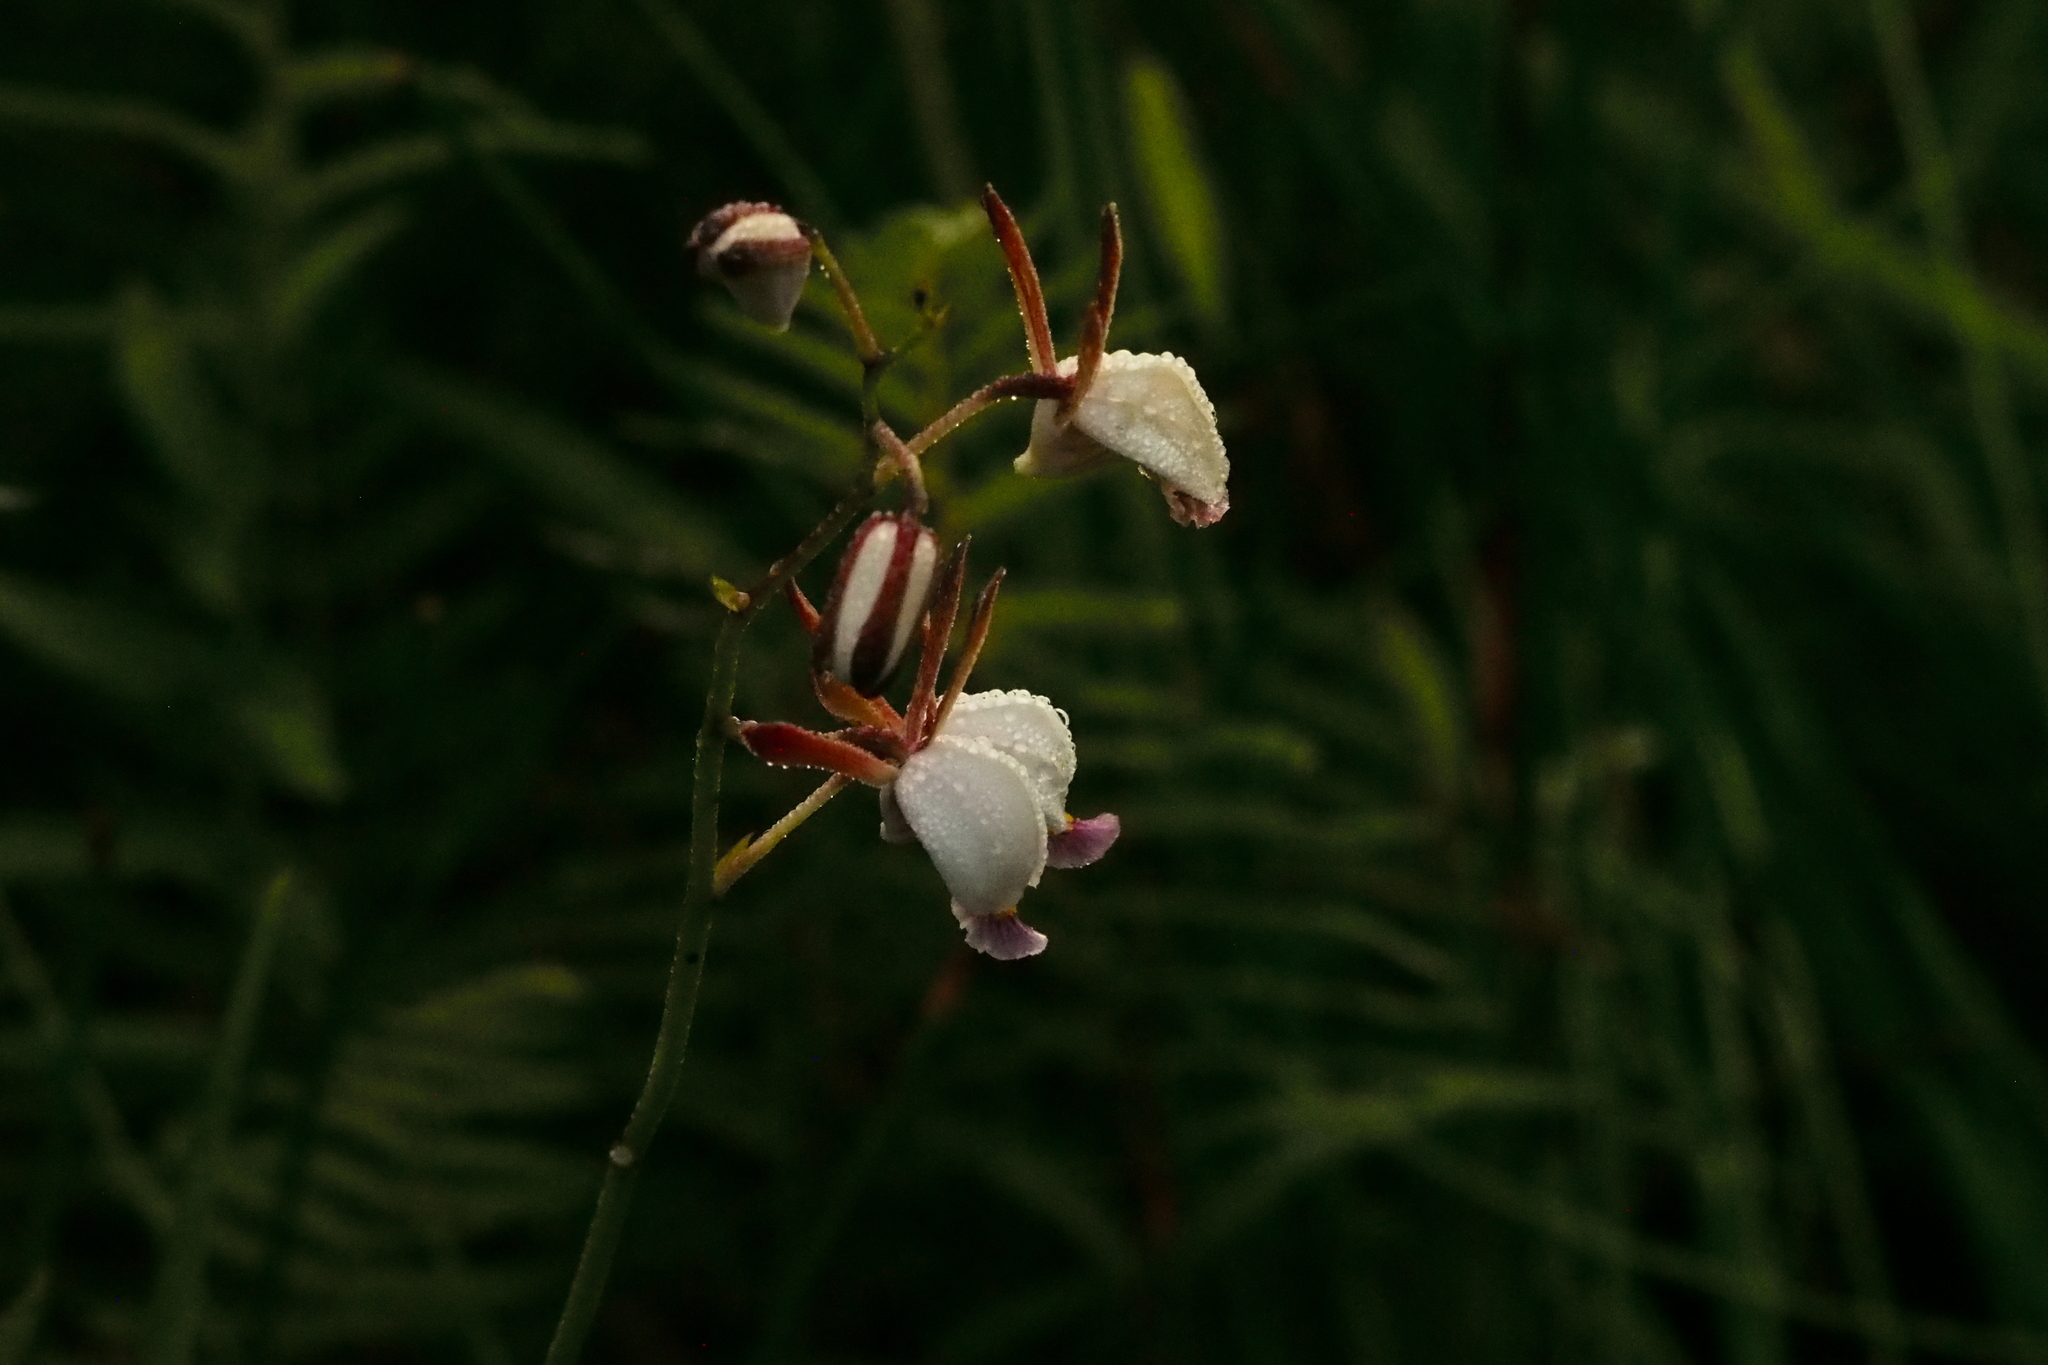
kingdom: Plantae
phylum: Tracheophyta
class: Liliopsida
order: Asparagales
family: Orchidaceae
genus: Eulophia
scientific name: Eulophia caricifolia
